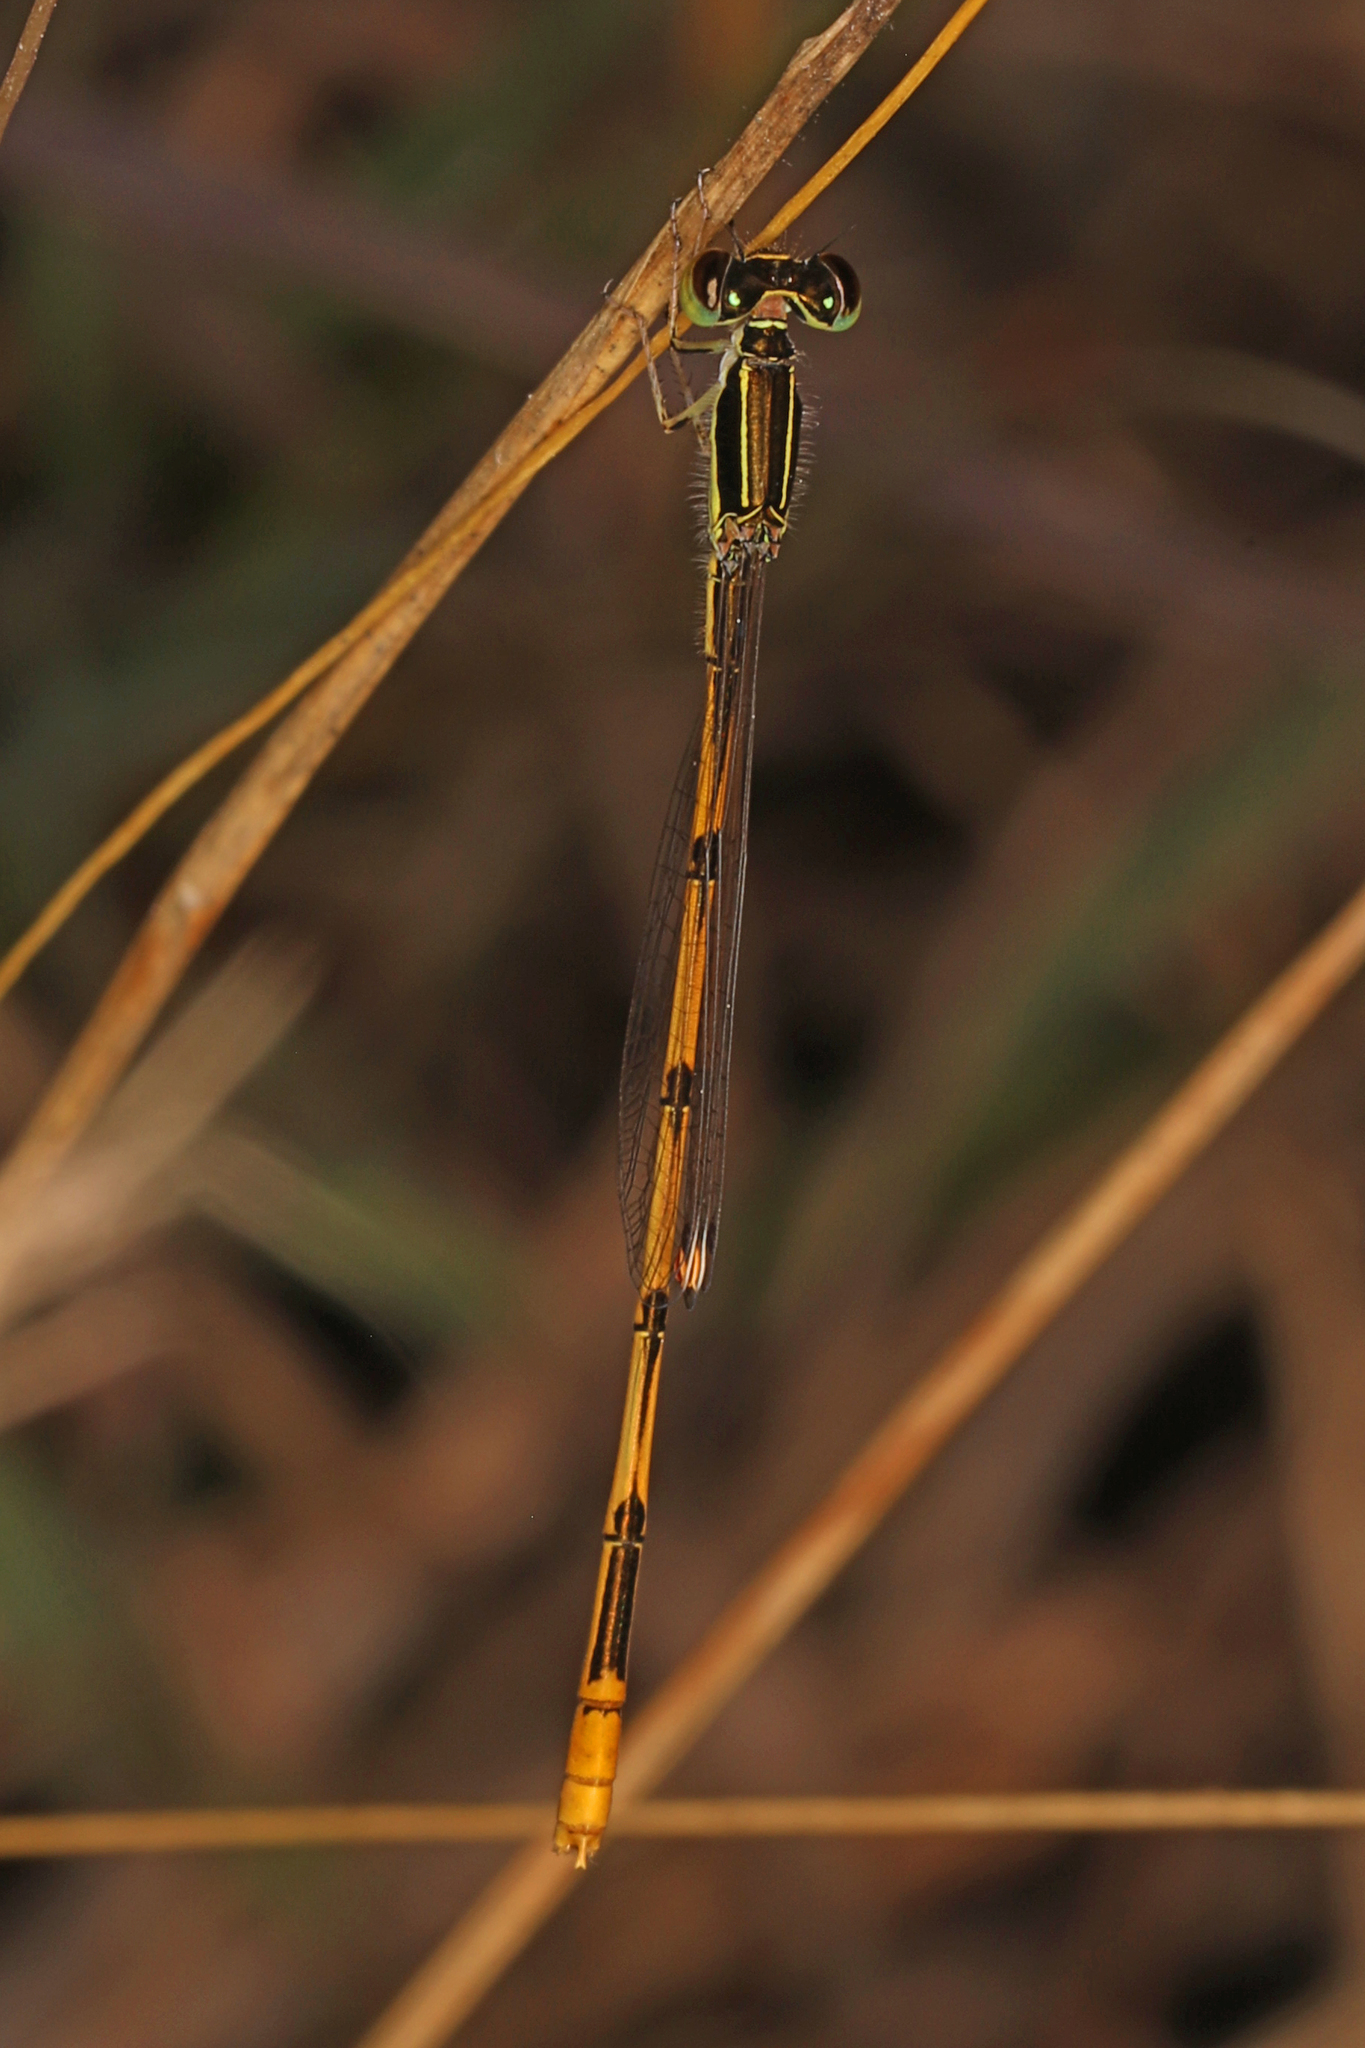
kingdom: Animalia
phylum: Arthropoda
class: Insecta
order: Odonata
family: Coenagrionidae
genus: Ischnura
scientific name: Ischnura hastata
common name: Citrine forktail
